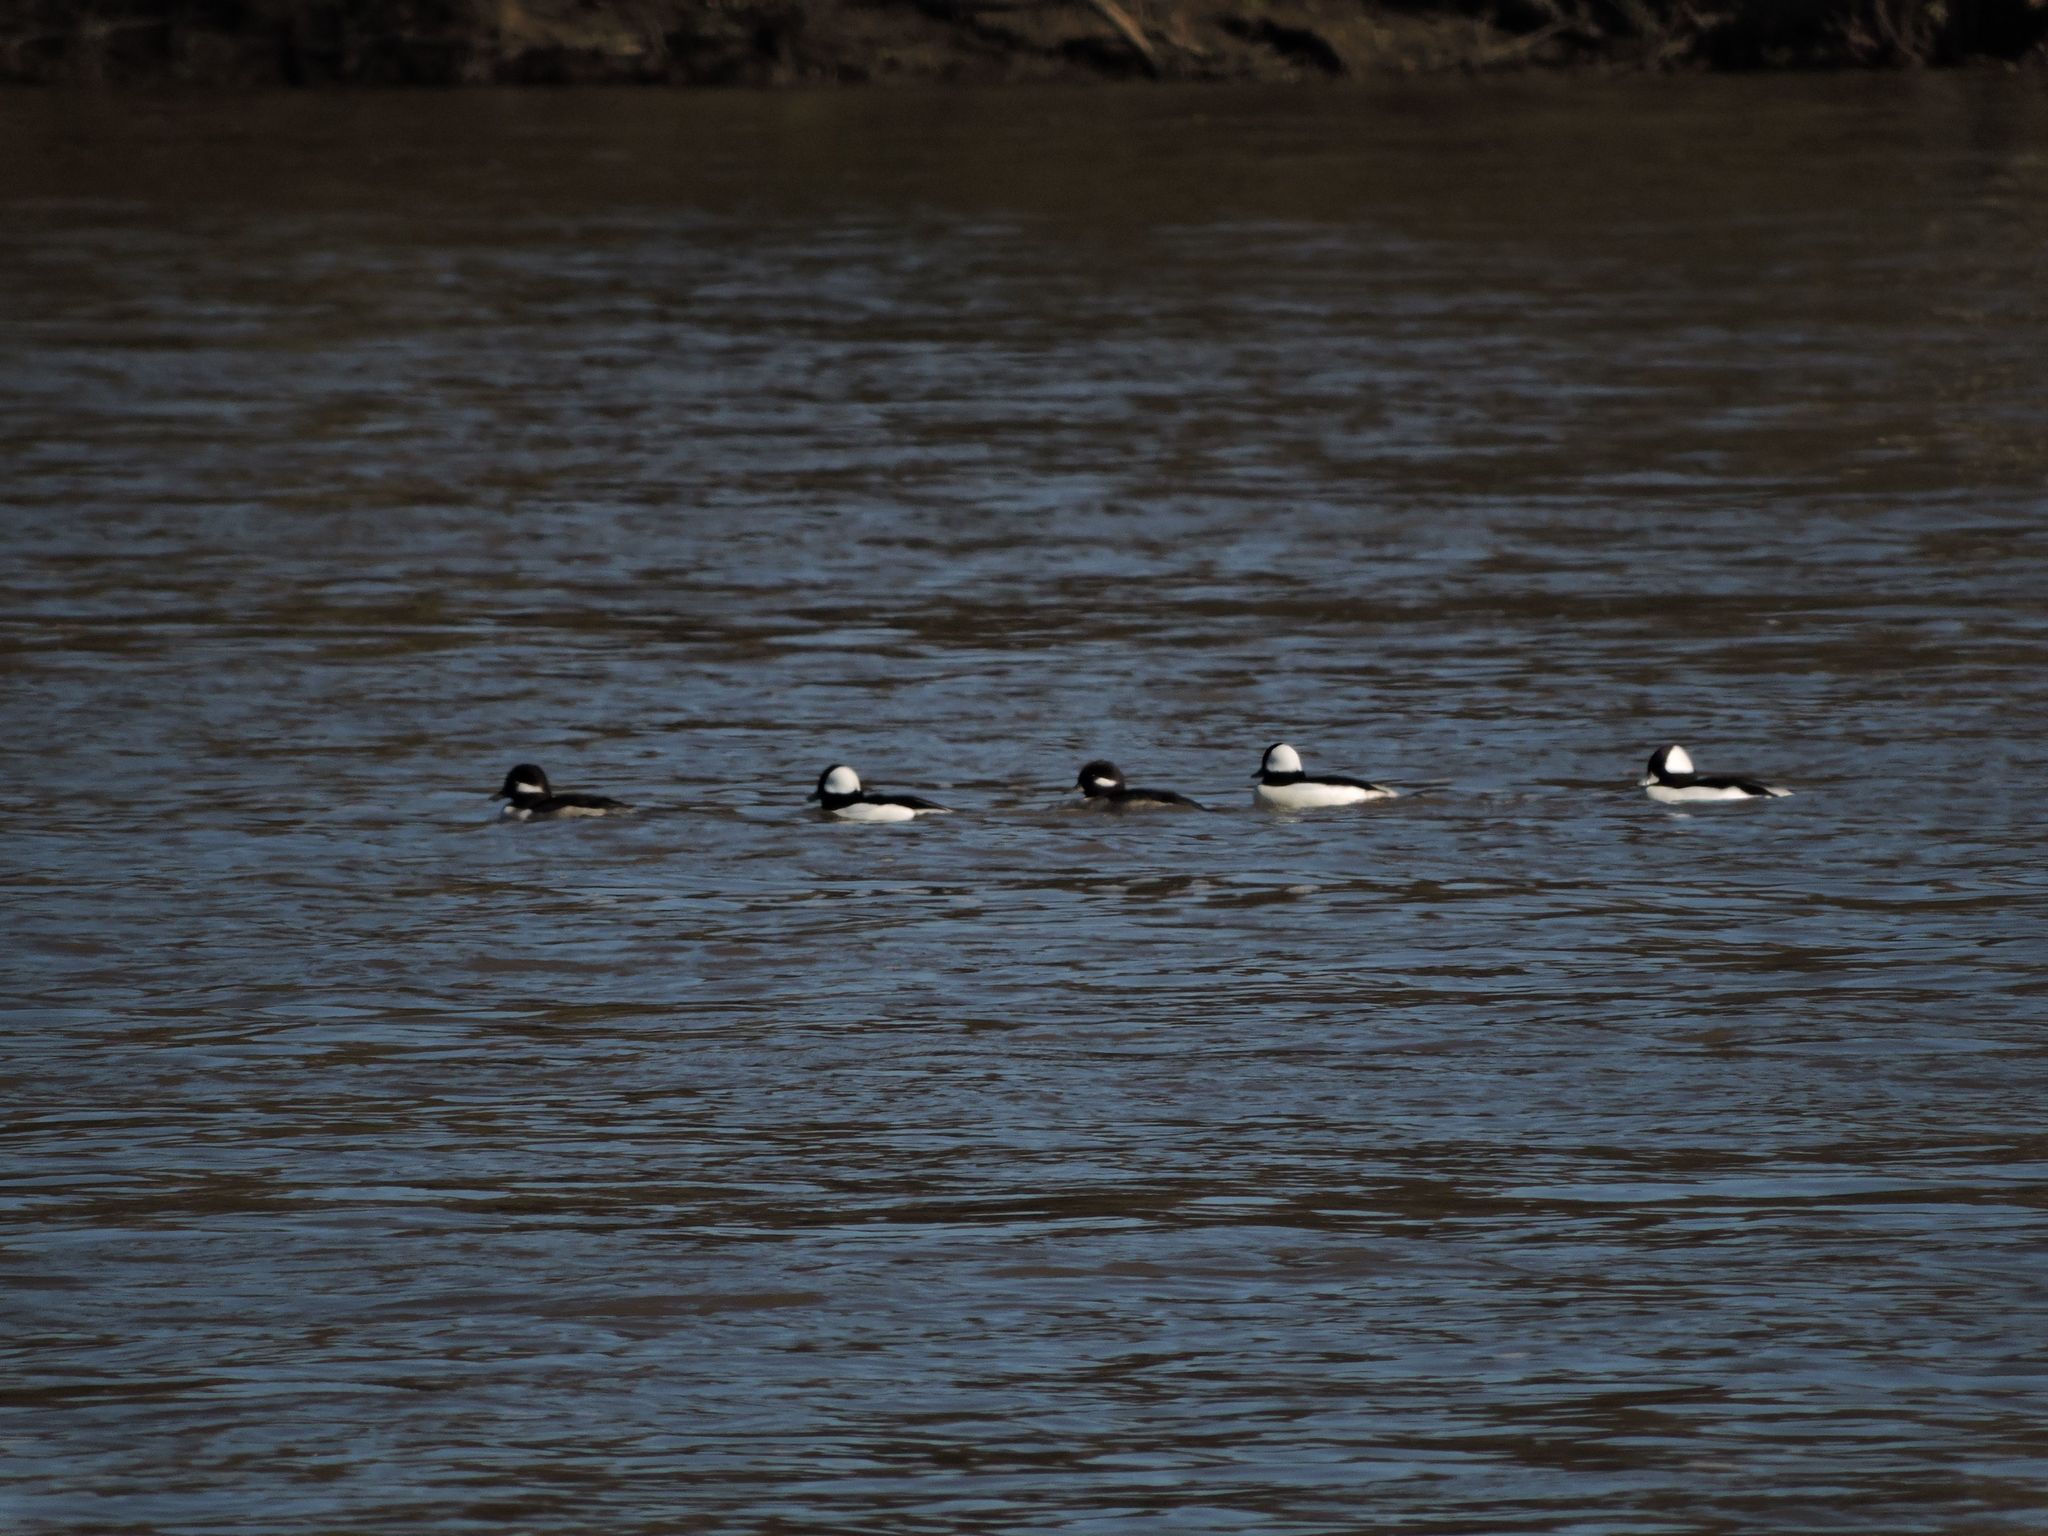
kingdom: Animalia
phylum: Chordata
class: Aves
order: Anseriformes
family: Anatidae
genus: Bucephala
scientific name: Bucephala albeola
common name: Bufflehead
